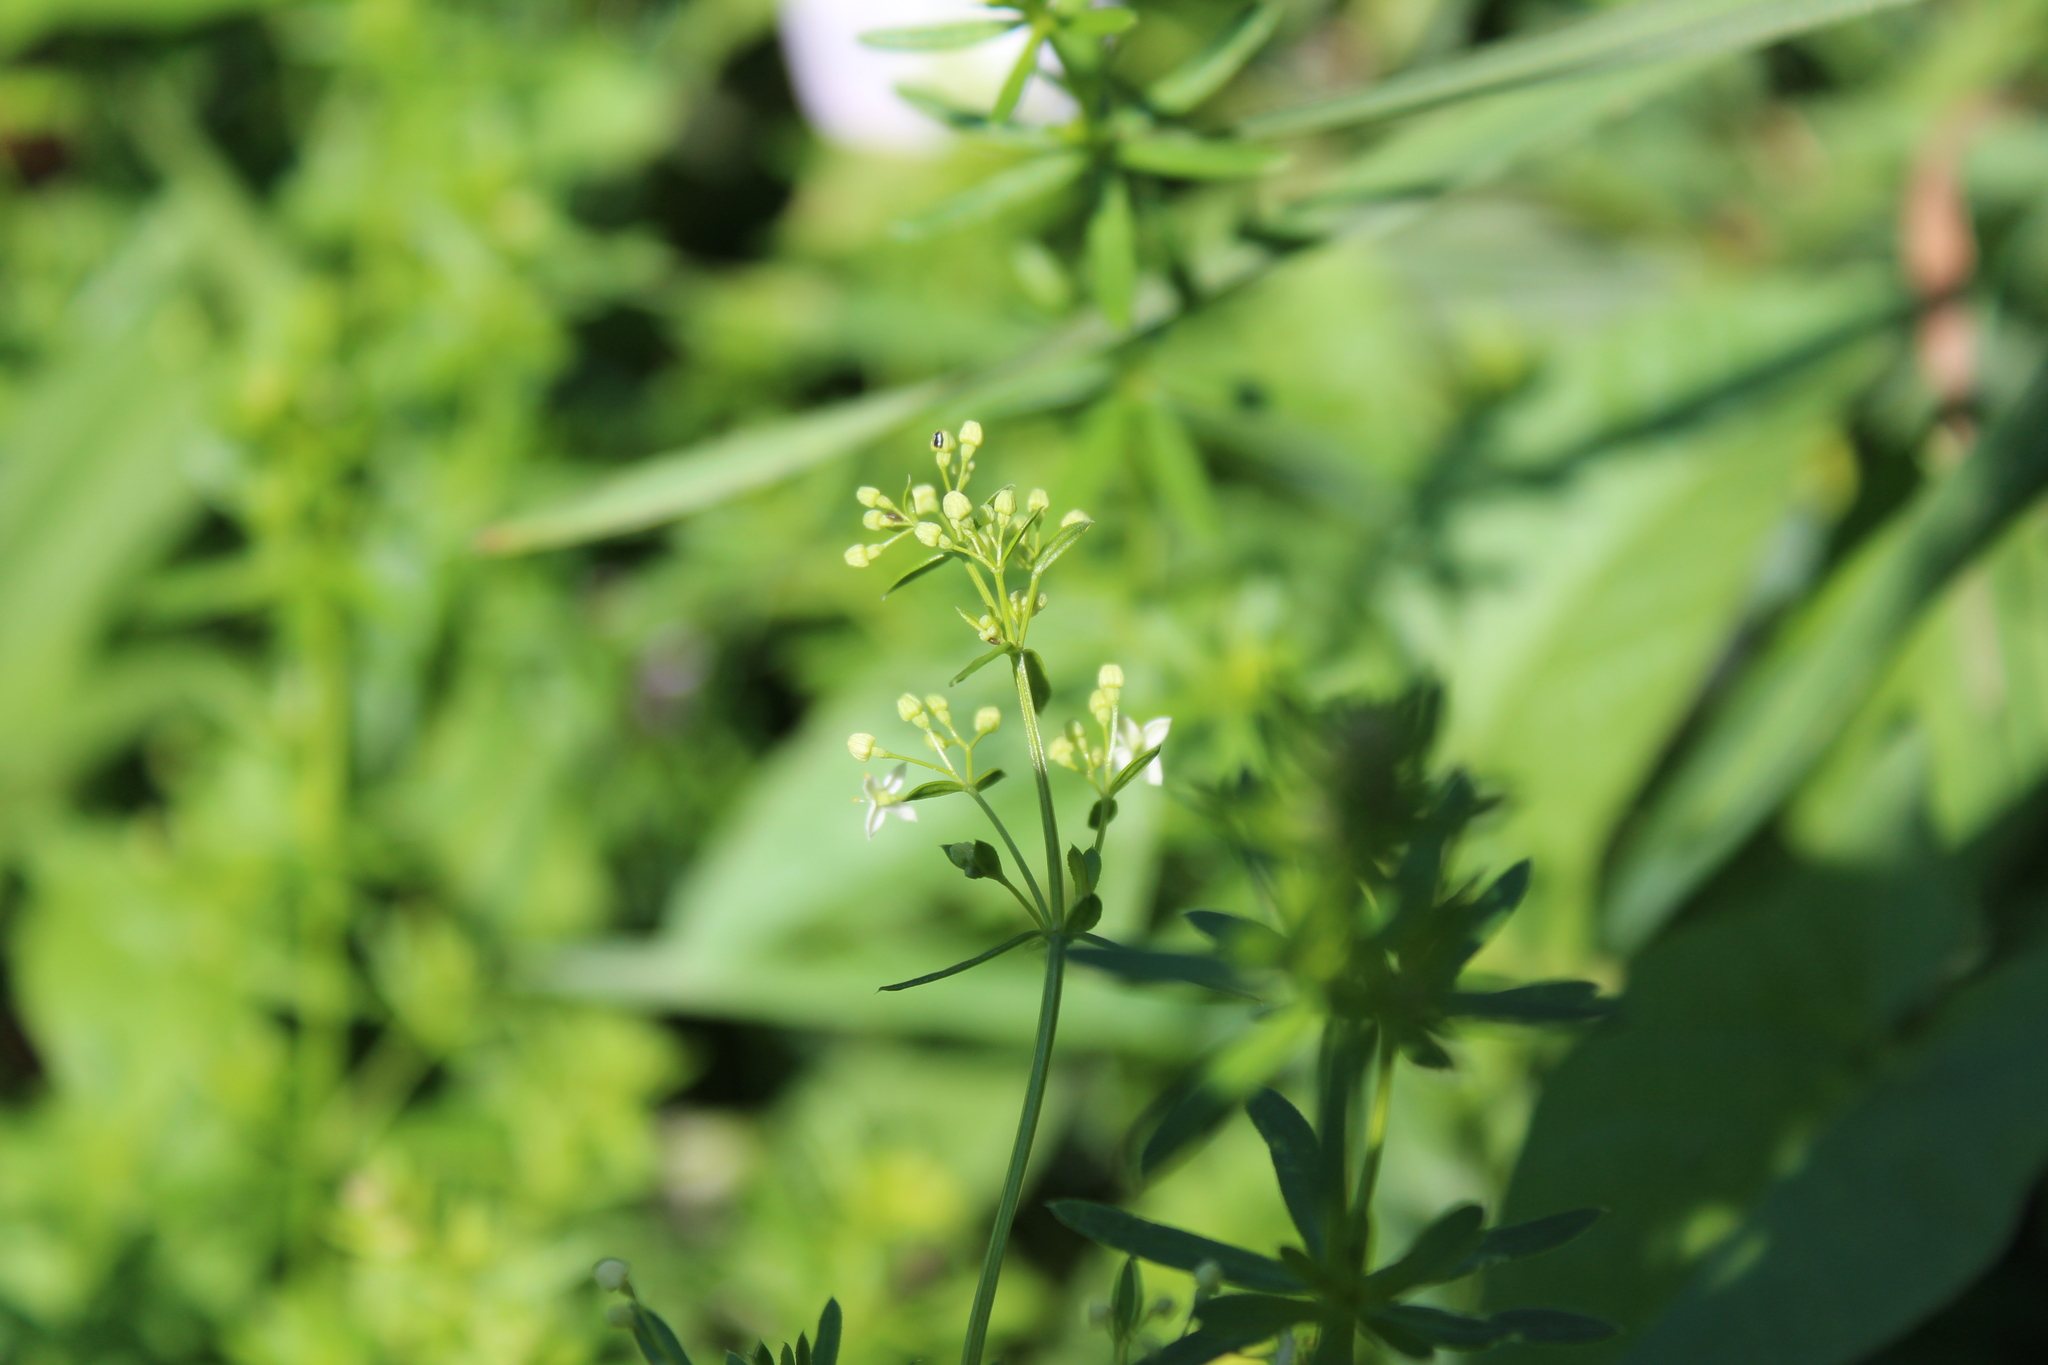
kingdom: Plantae
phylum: Tracheophyta
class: Magnoliopsida
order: Gentianales
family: Rubiaceae
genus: Galium
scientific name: Galium mollugo
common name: Hedge bedstraw
